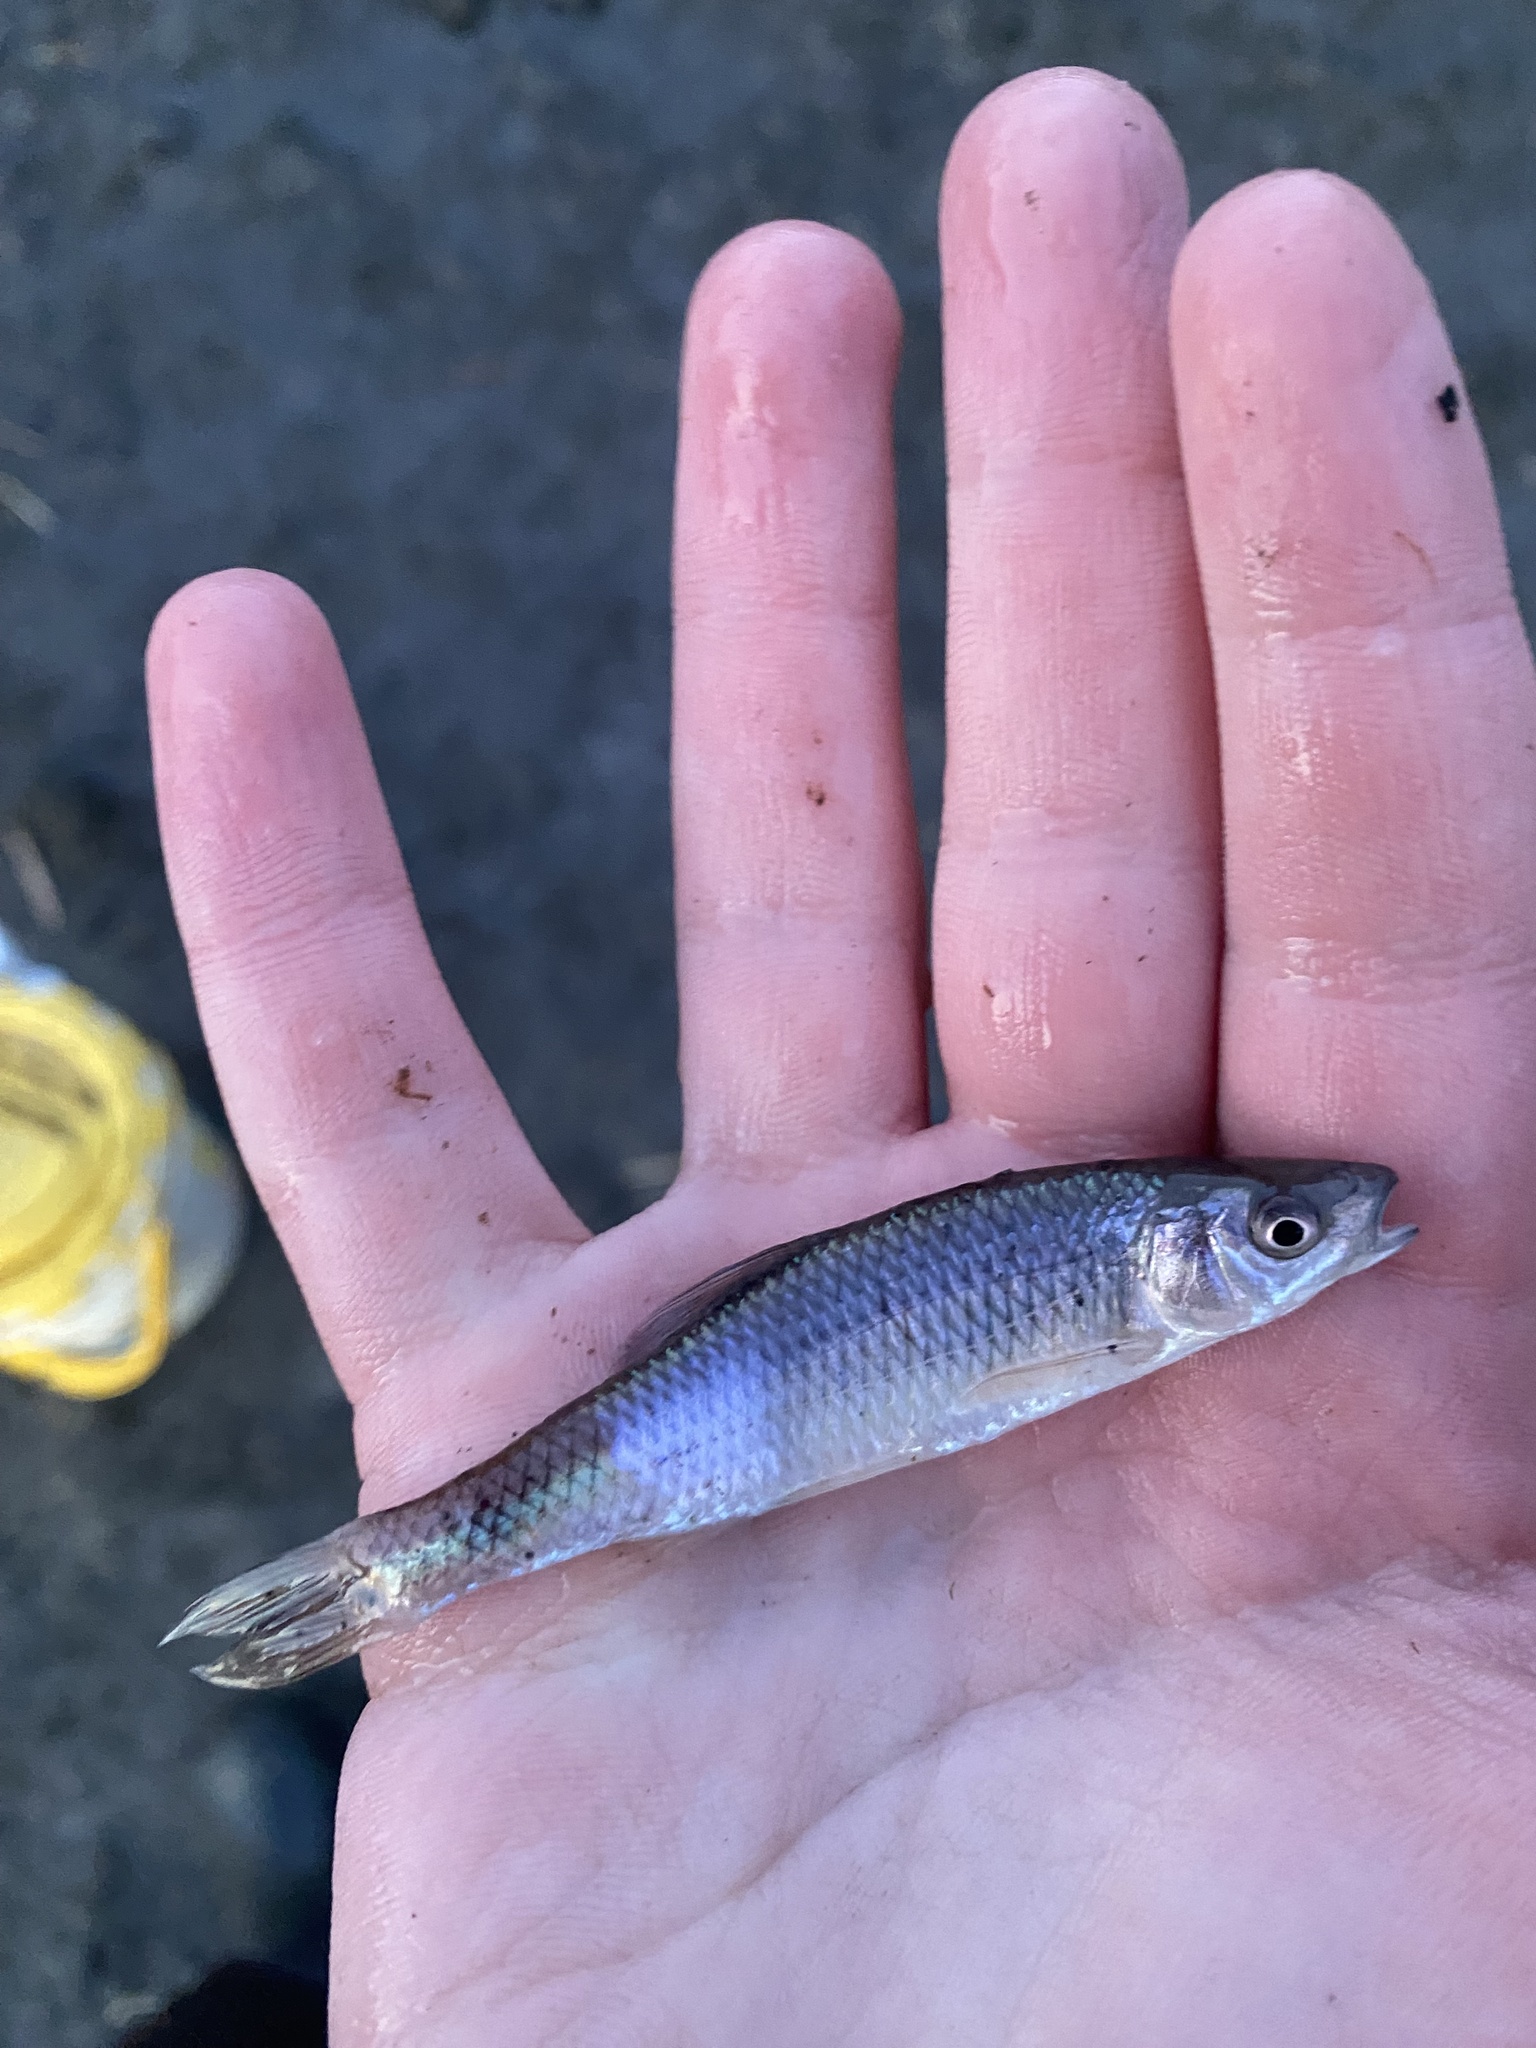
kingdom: Animalia
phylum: Chordata
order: Cypriniformes
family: Cyprinidae
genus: Cyprinella
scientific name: Cyprinella spiloptera
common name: Spotfin shiner
